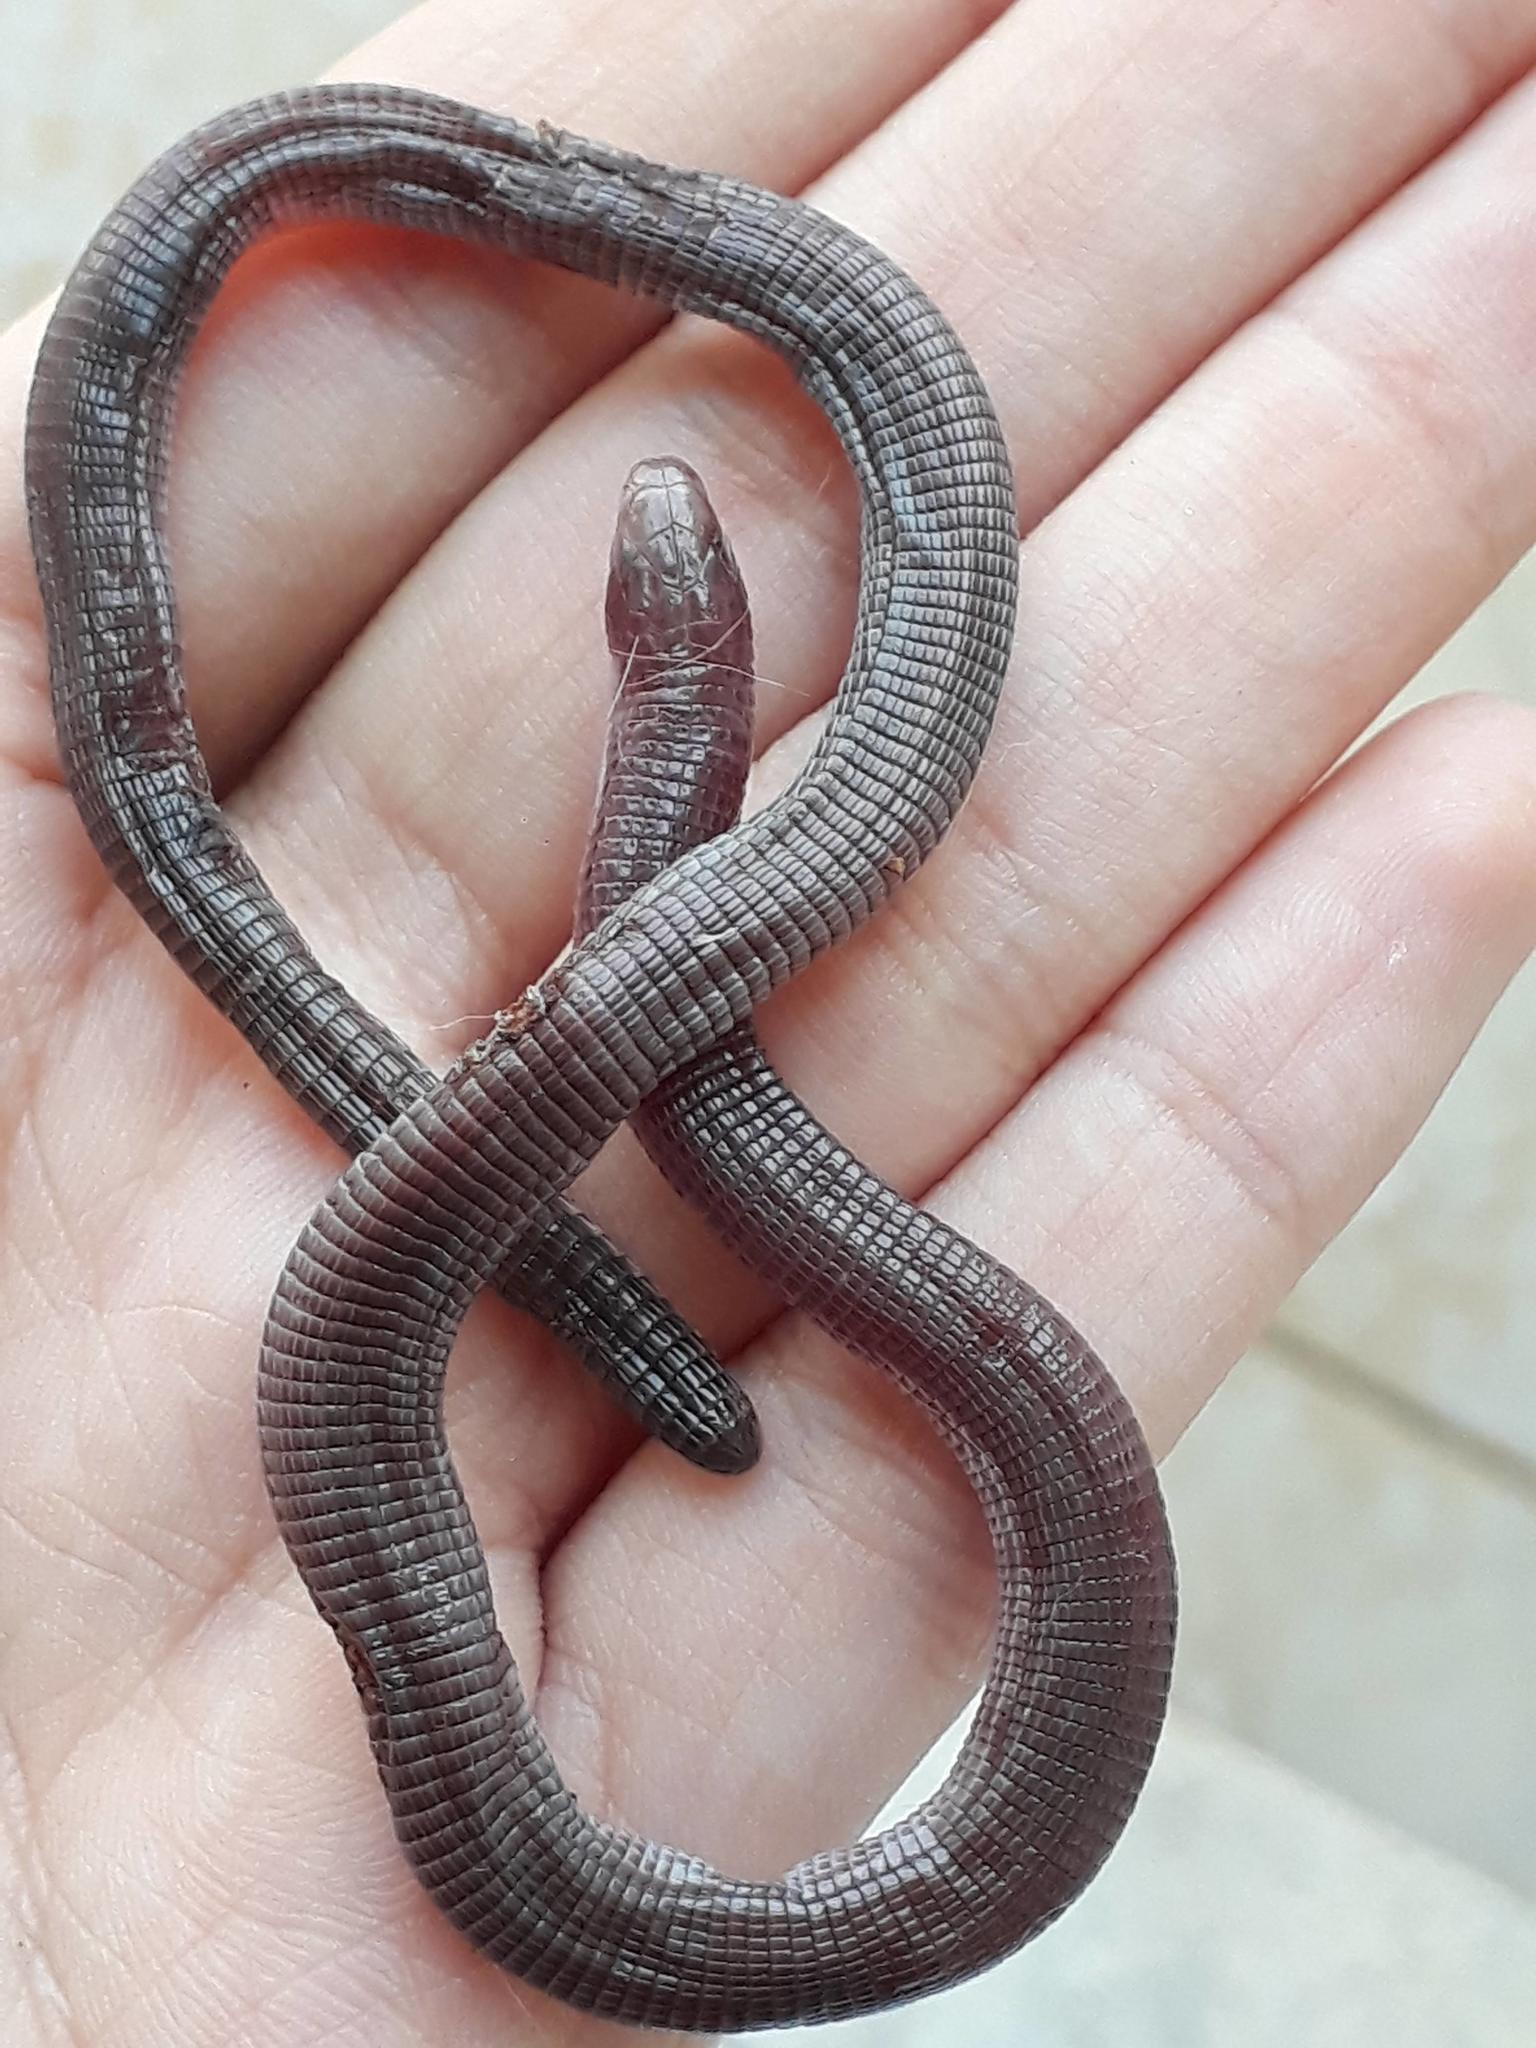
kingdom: Animalia
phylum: Chordata
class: Squamata
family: Amphisbaenidae
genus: Amphisbaena
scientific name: Amphisbaena darwinii
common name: Darwin's ringed worm lizard
